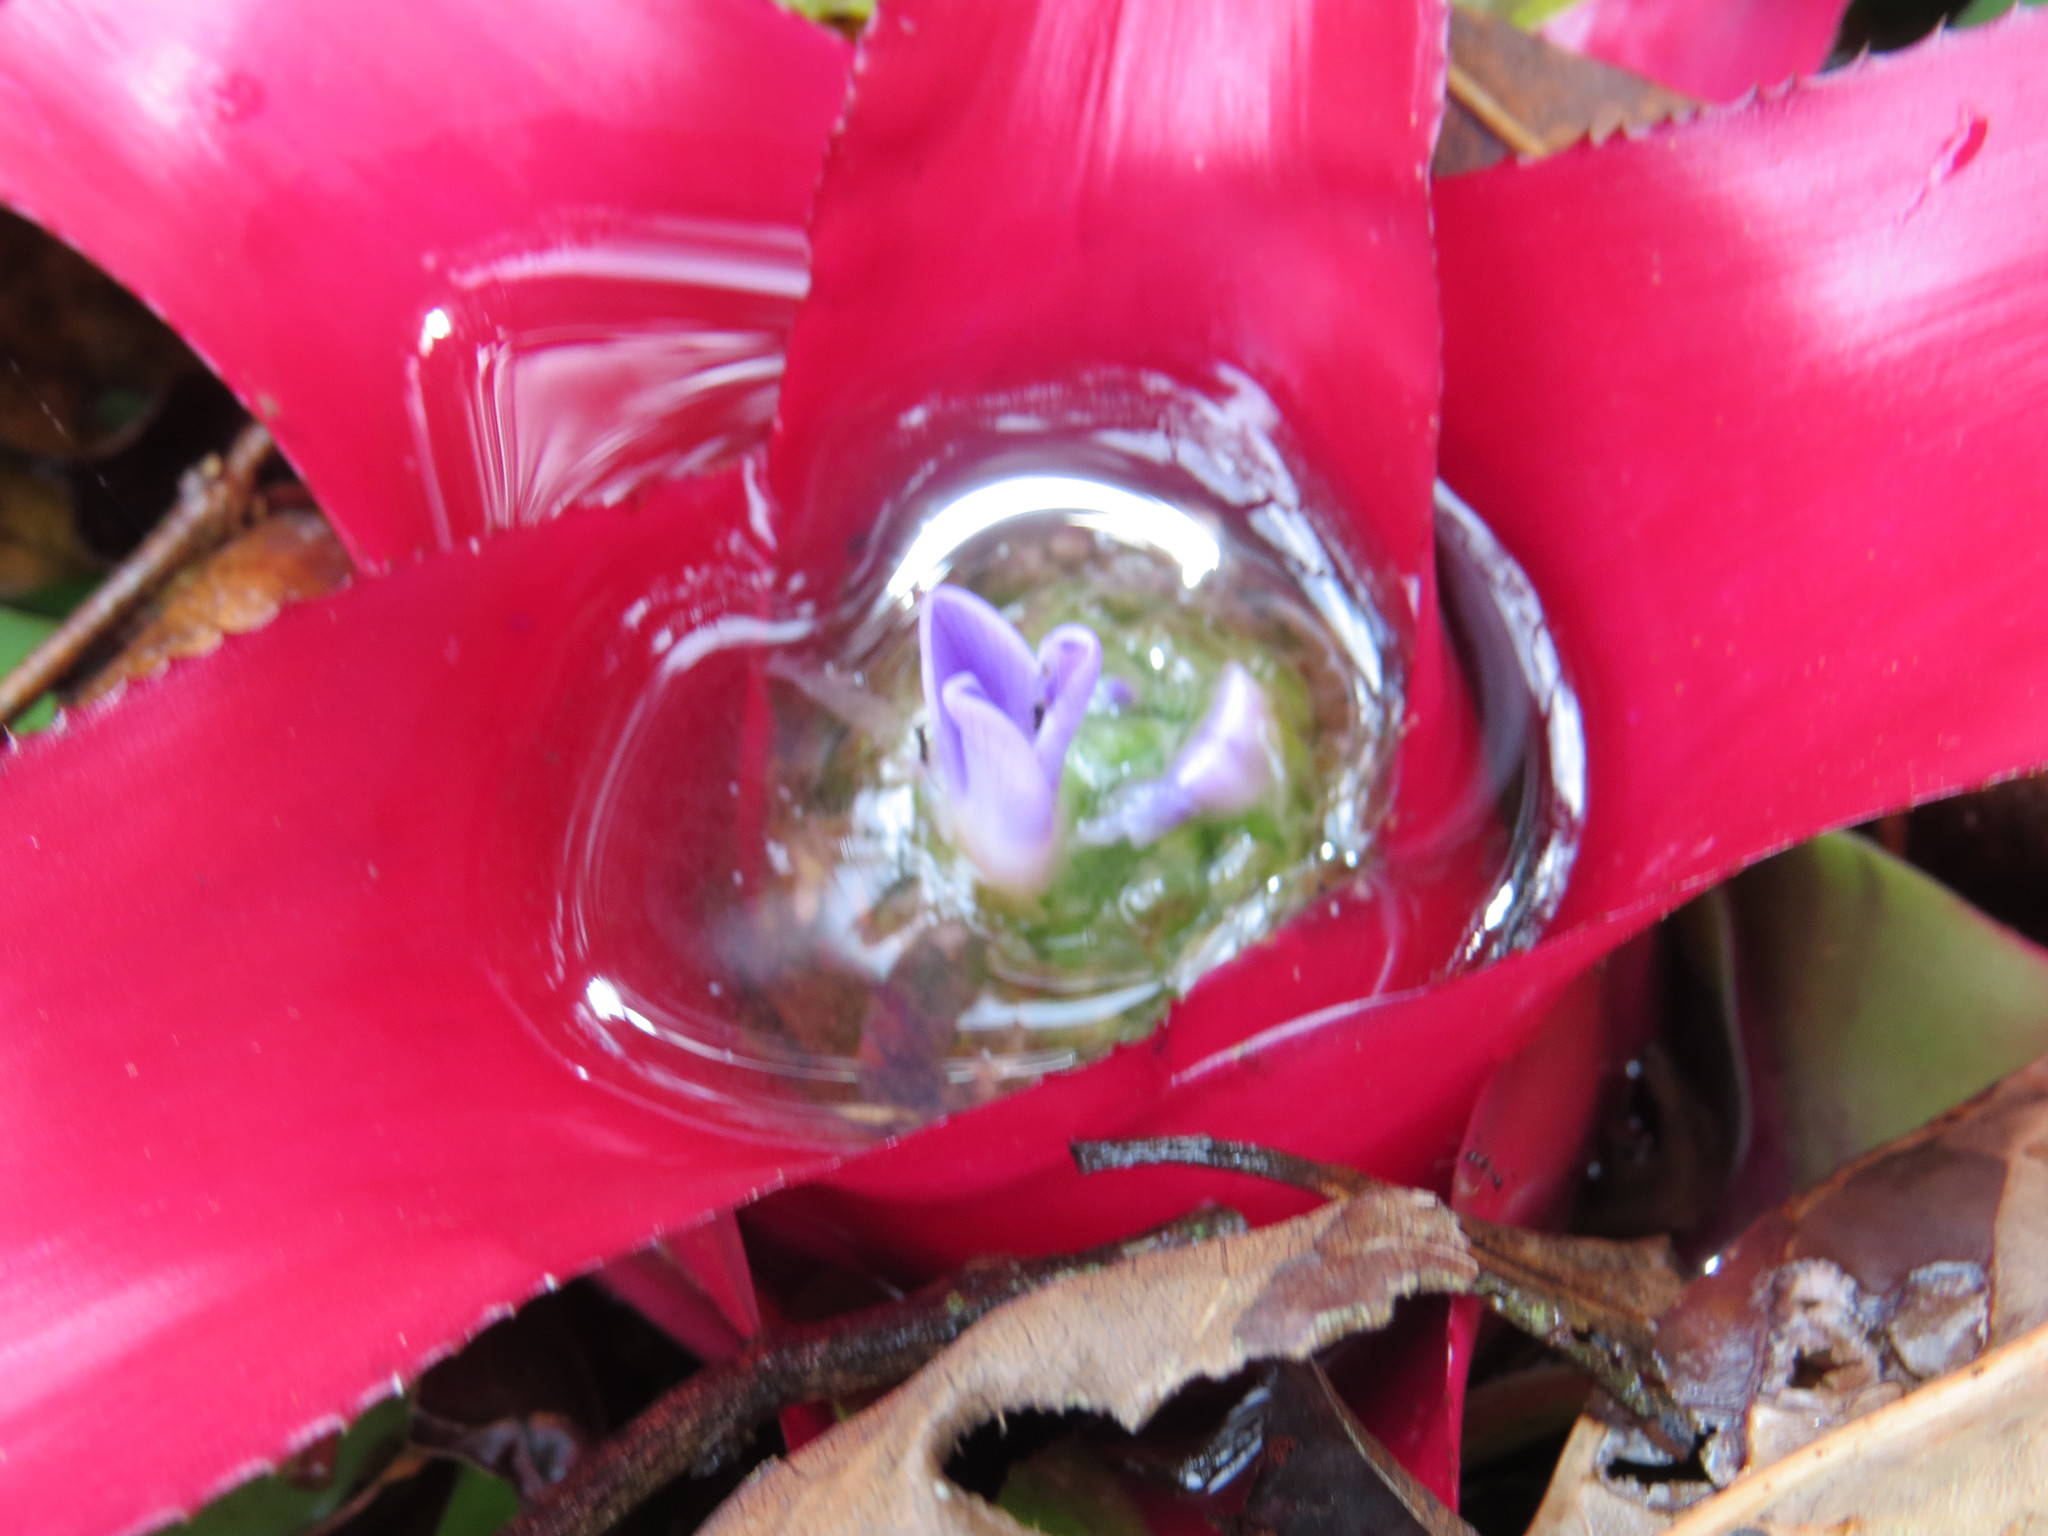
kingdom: Plantae
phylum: Tracheophyta
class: Liliopsida
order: Poales
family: Bromeliaceae
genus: Neoregelia
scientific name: Neoregelia carolinae
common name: Blushing bromeliad
